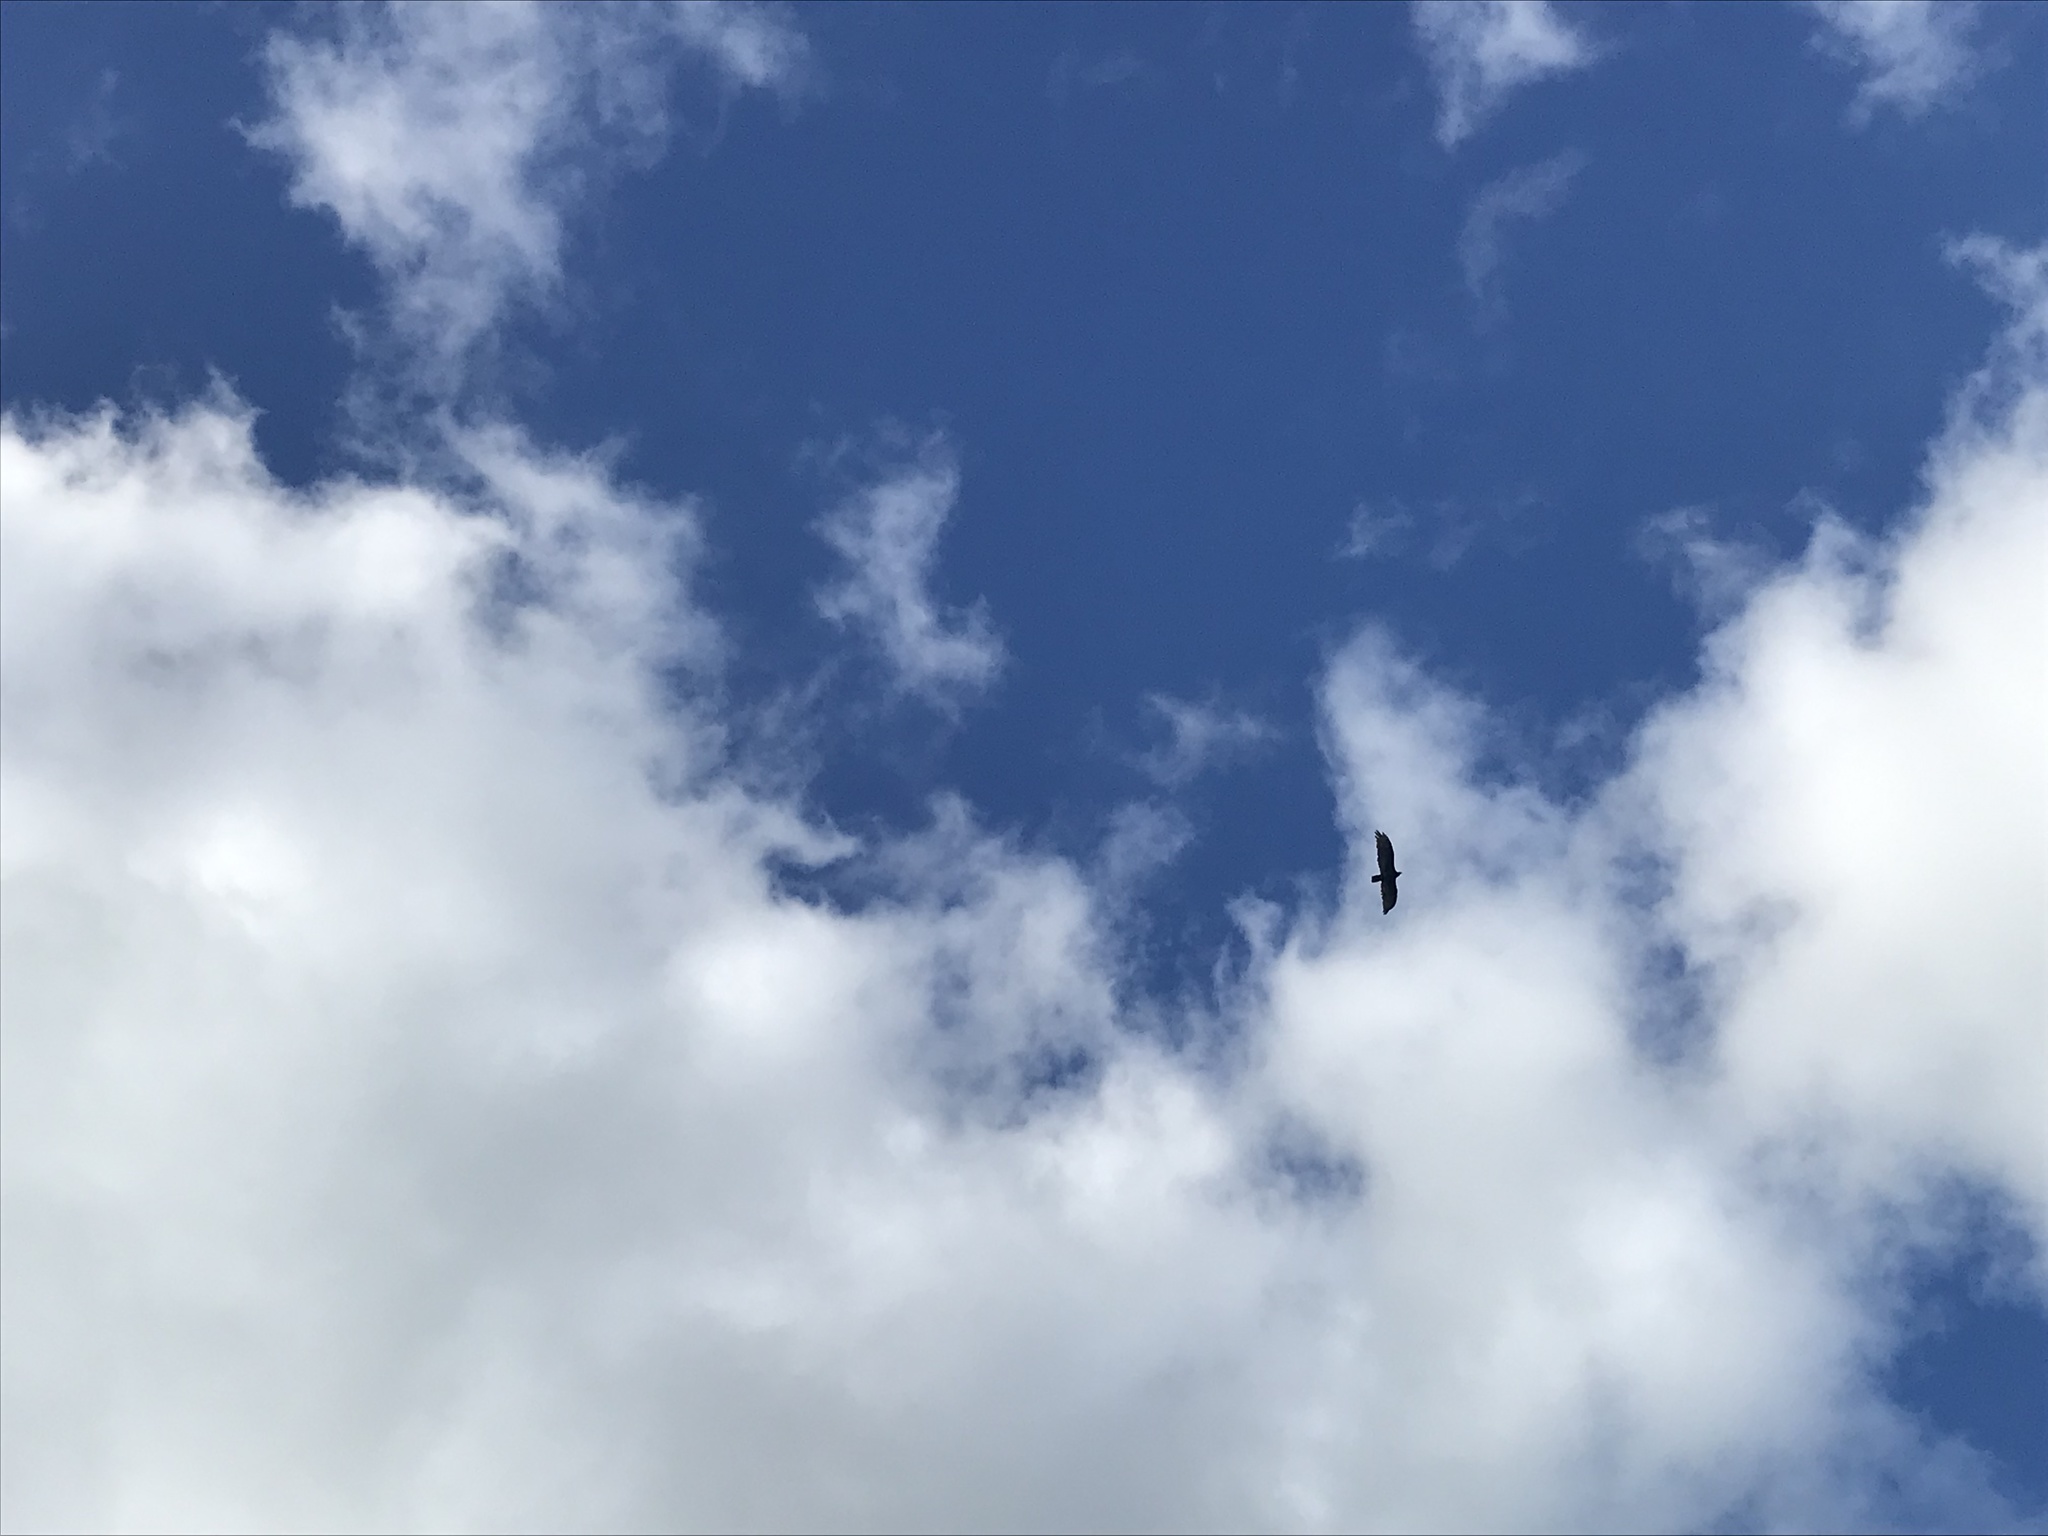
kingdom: Animalia
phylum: Chordata
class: Aves
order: Accipitriformes
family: Cathartidae
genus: Cathartes
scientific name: Cathartes aura
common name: Turkey vulture
